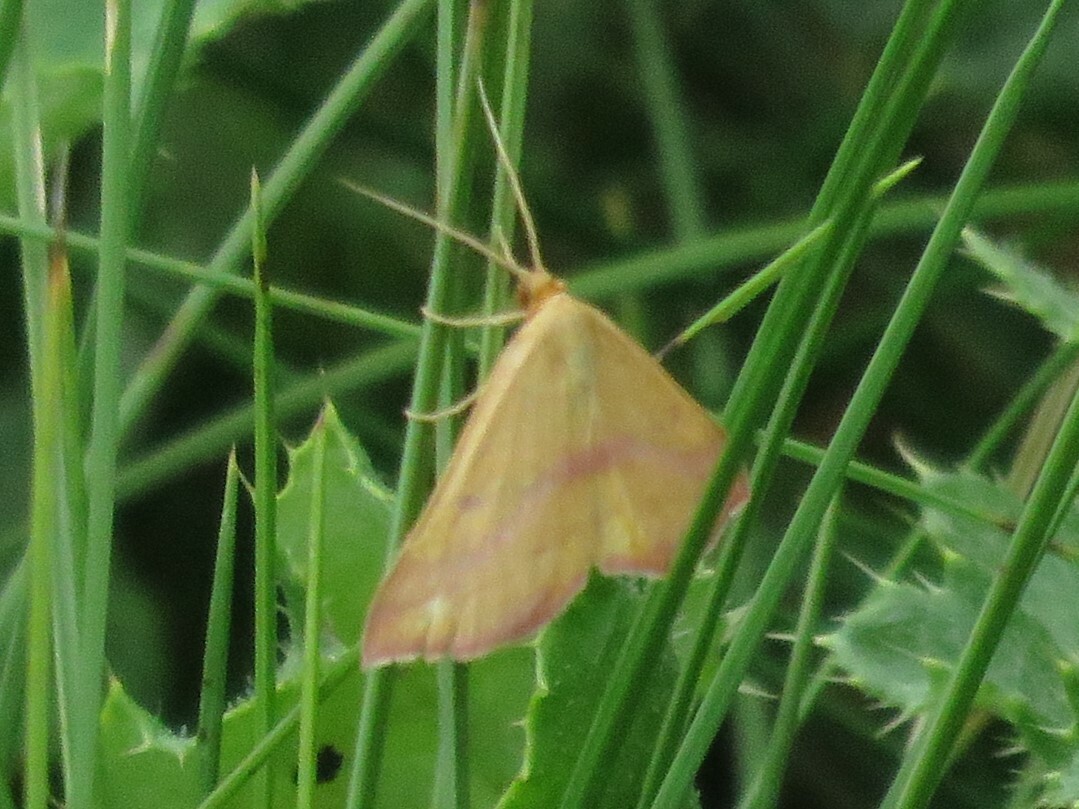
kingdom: Animalia
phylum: Arthropoda
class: Insecta
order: Lepidoptera
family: Geometridae
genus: Haematopis
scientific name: Haematopis grataria
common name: Chickweed geometer
